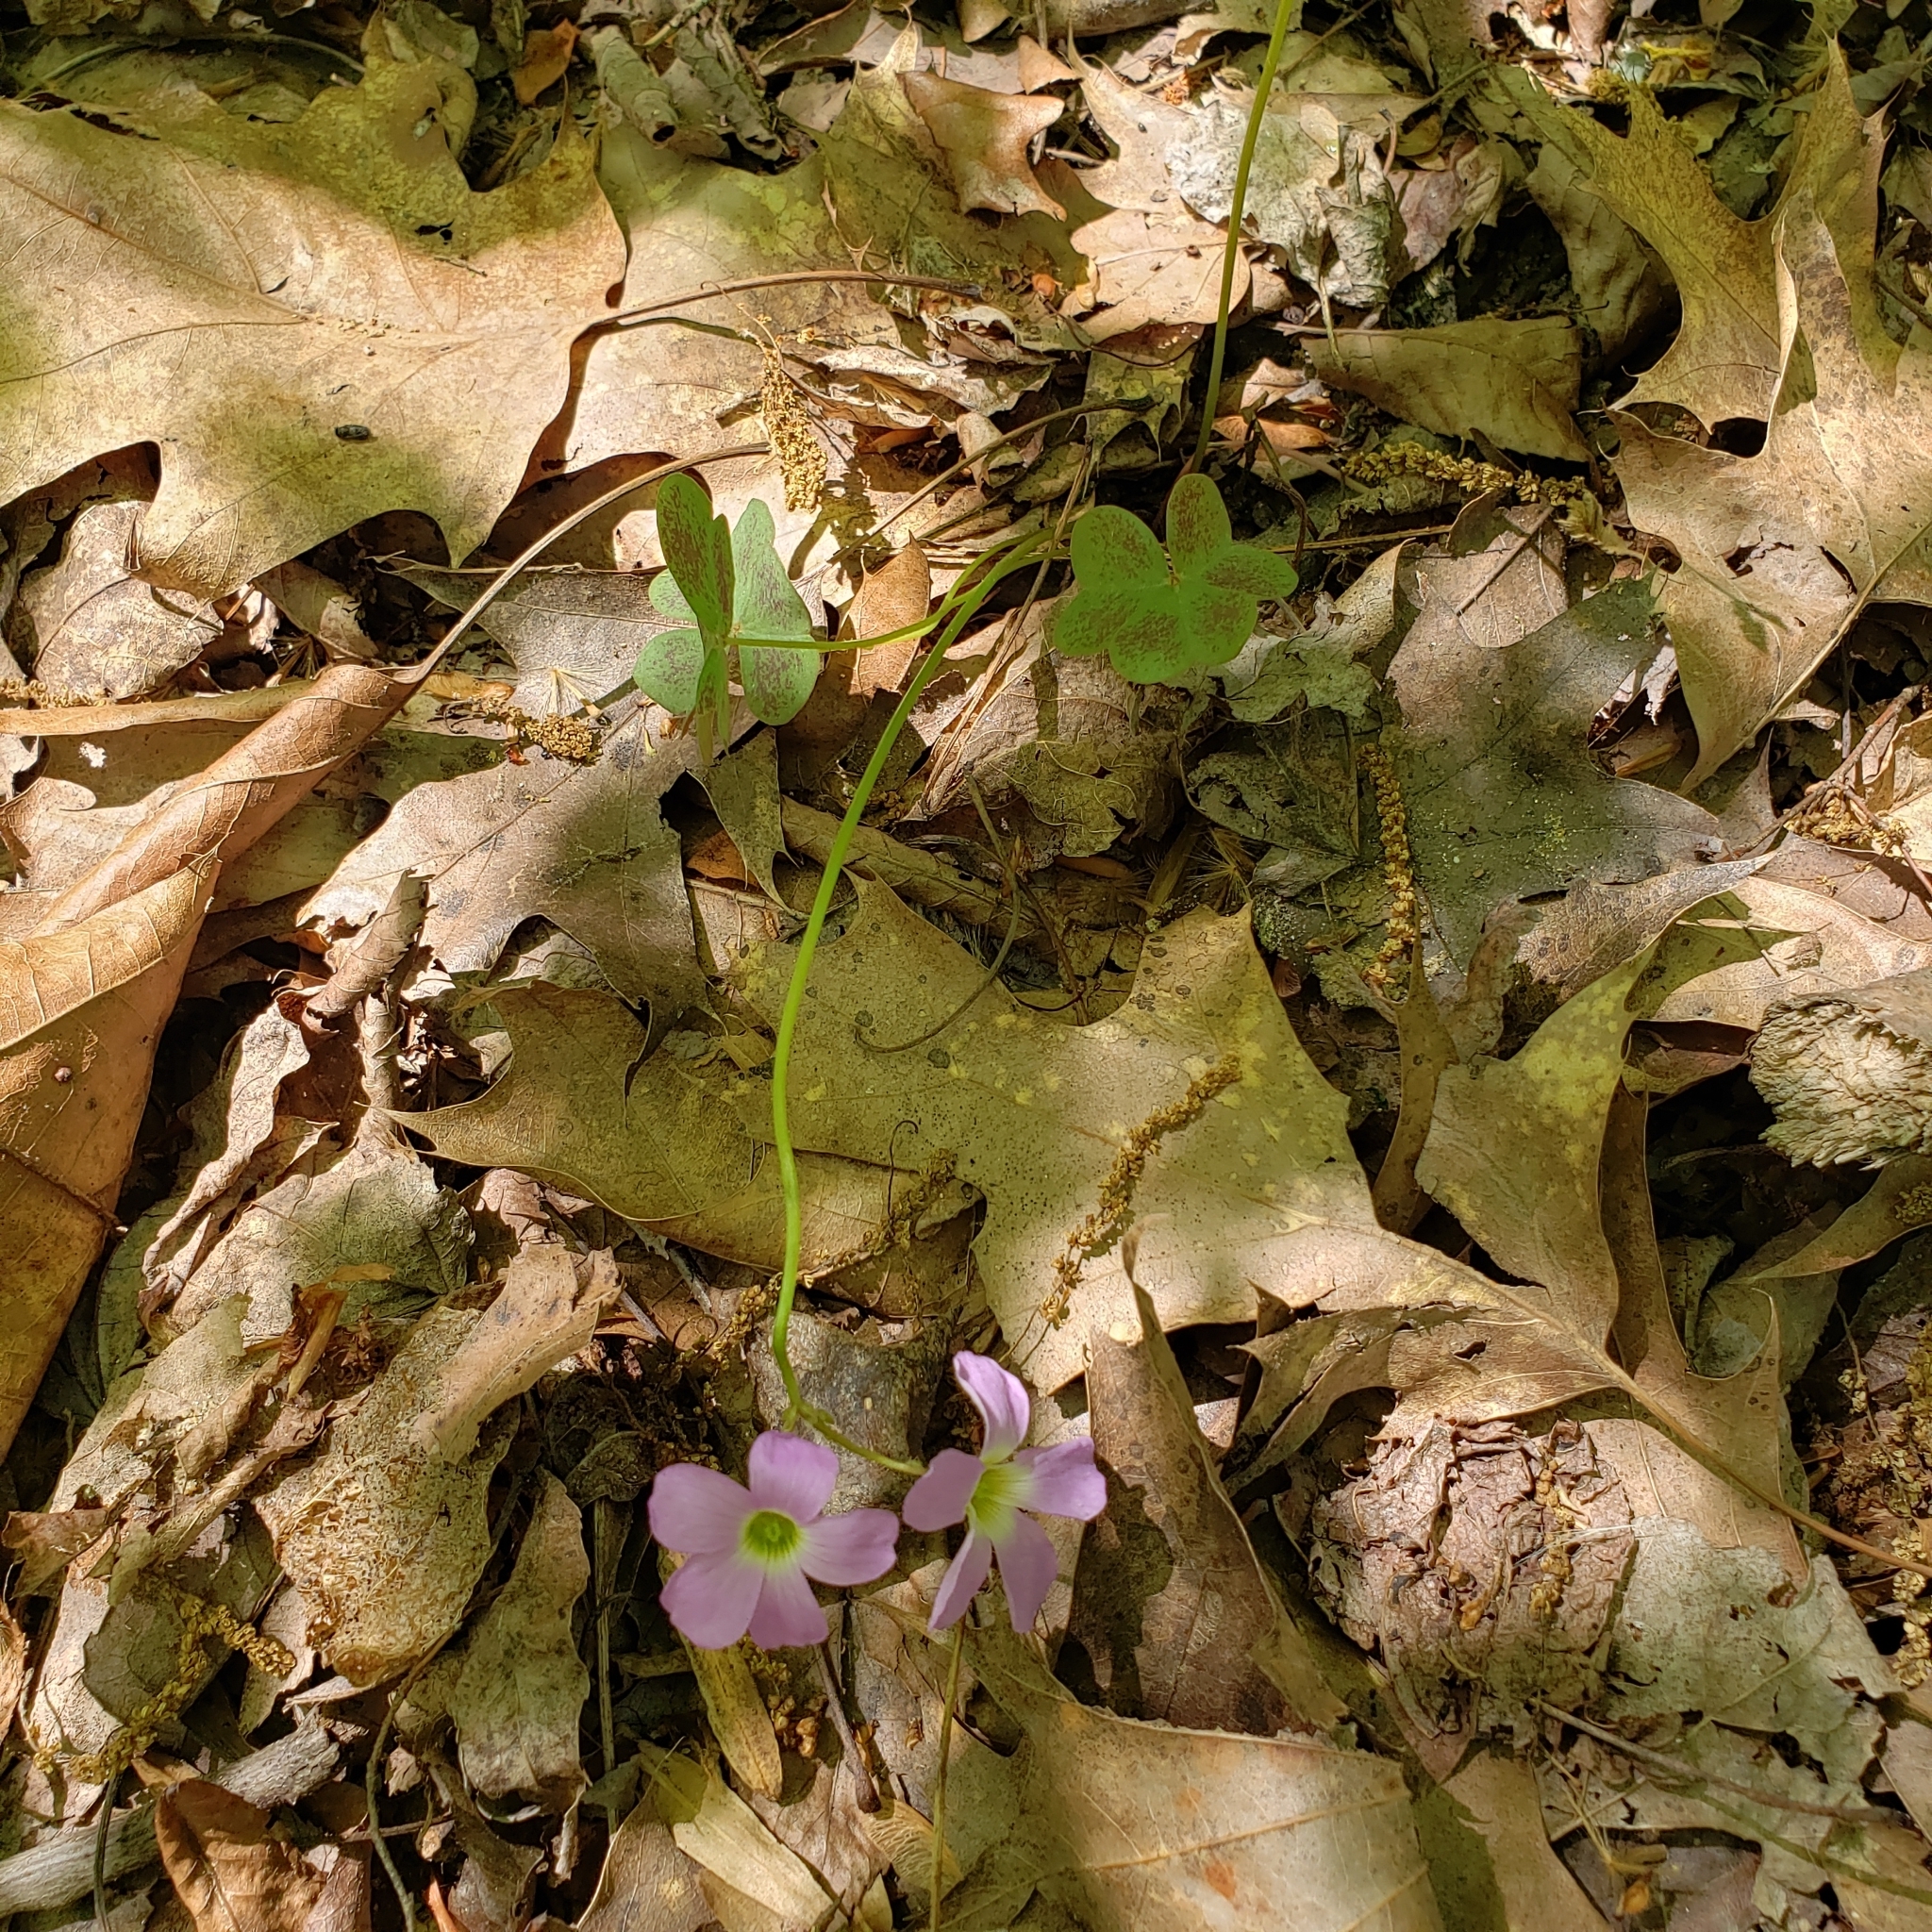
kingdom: Plantae
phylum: Tracheophyta
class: Magnoliopsida
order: Oxalidales
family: Oxalidaceae
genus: Oxalis
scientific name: Oxalis violacea
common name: Violet wood-sorrel
